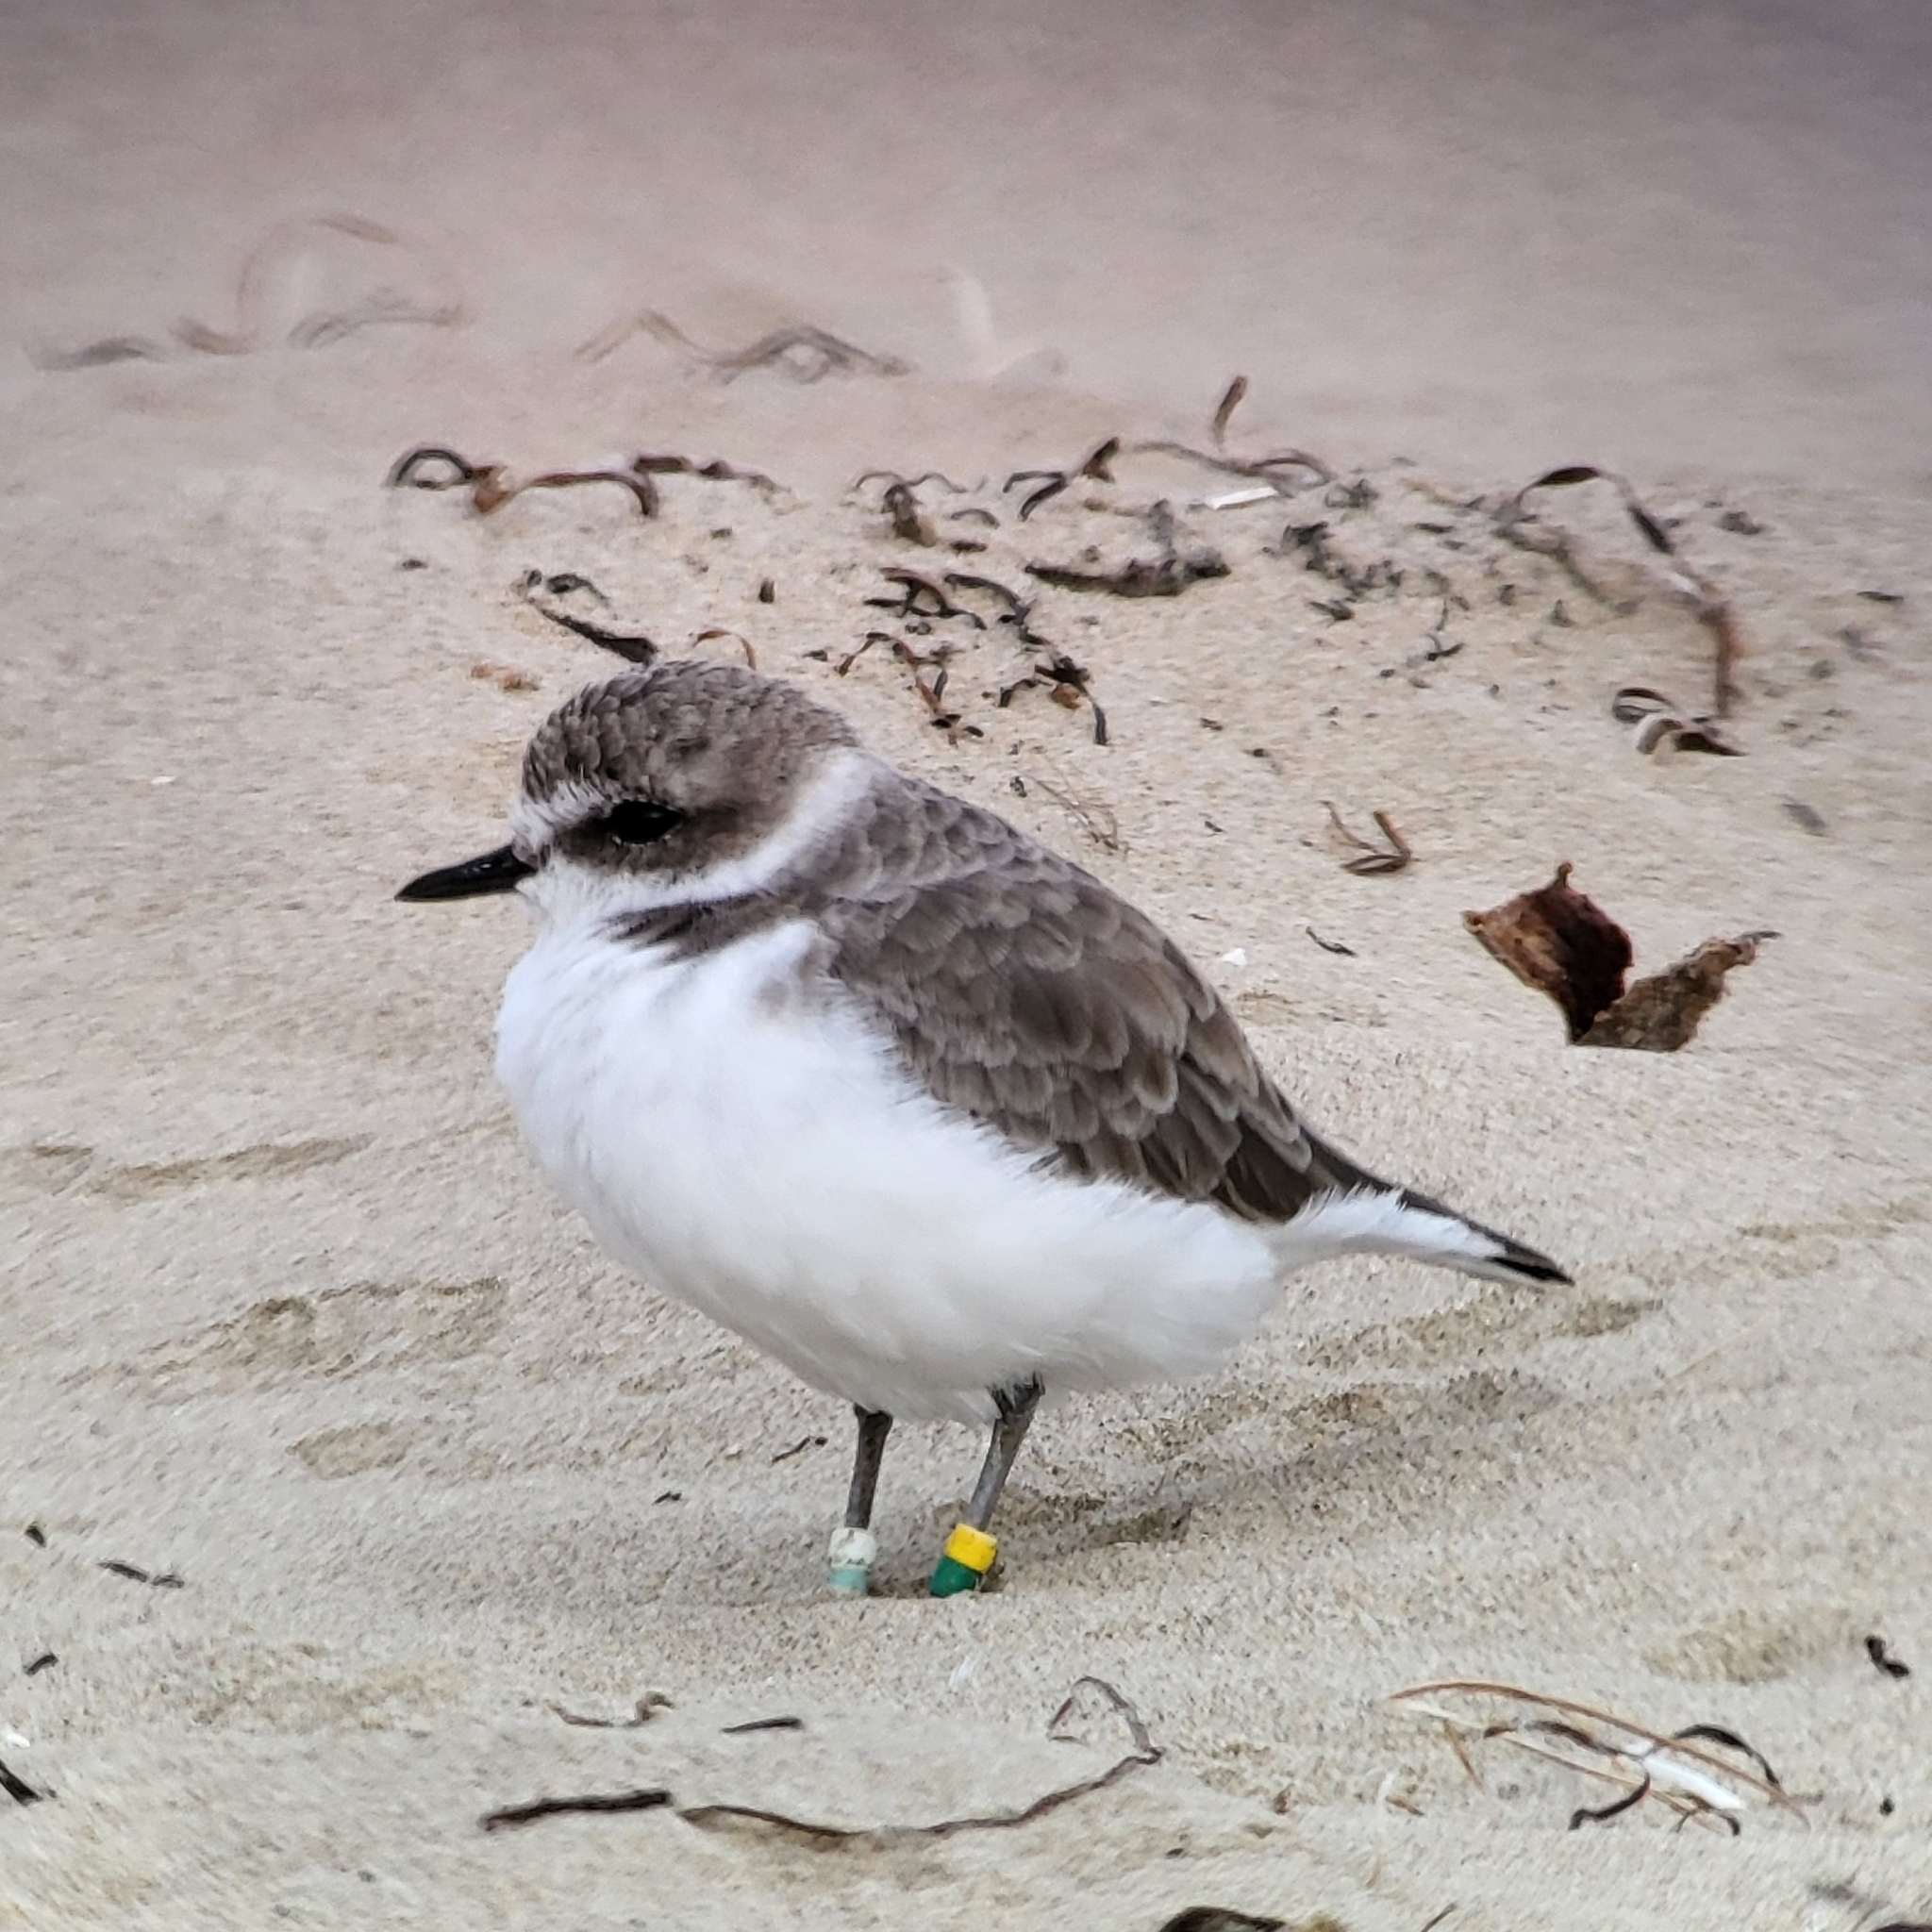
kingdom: Animalia
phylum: Chordata
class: Aves
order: Charadriiformes
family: Charadriidae
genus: Anarhynchus
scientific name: Anarhynchus
